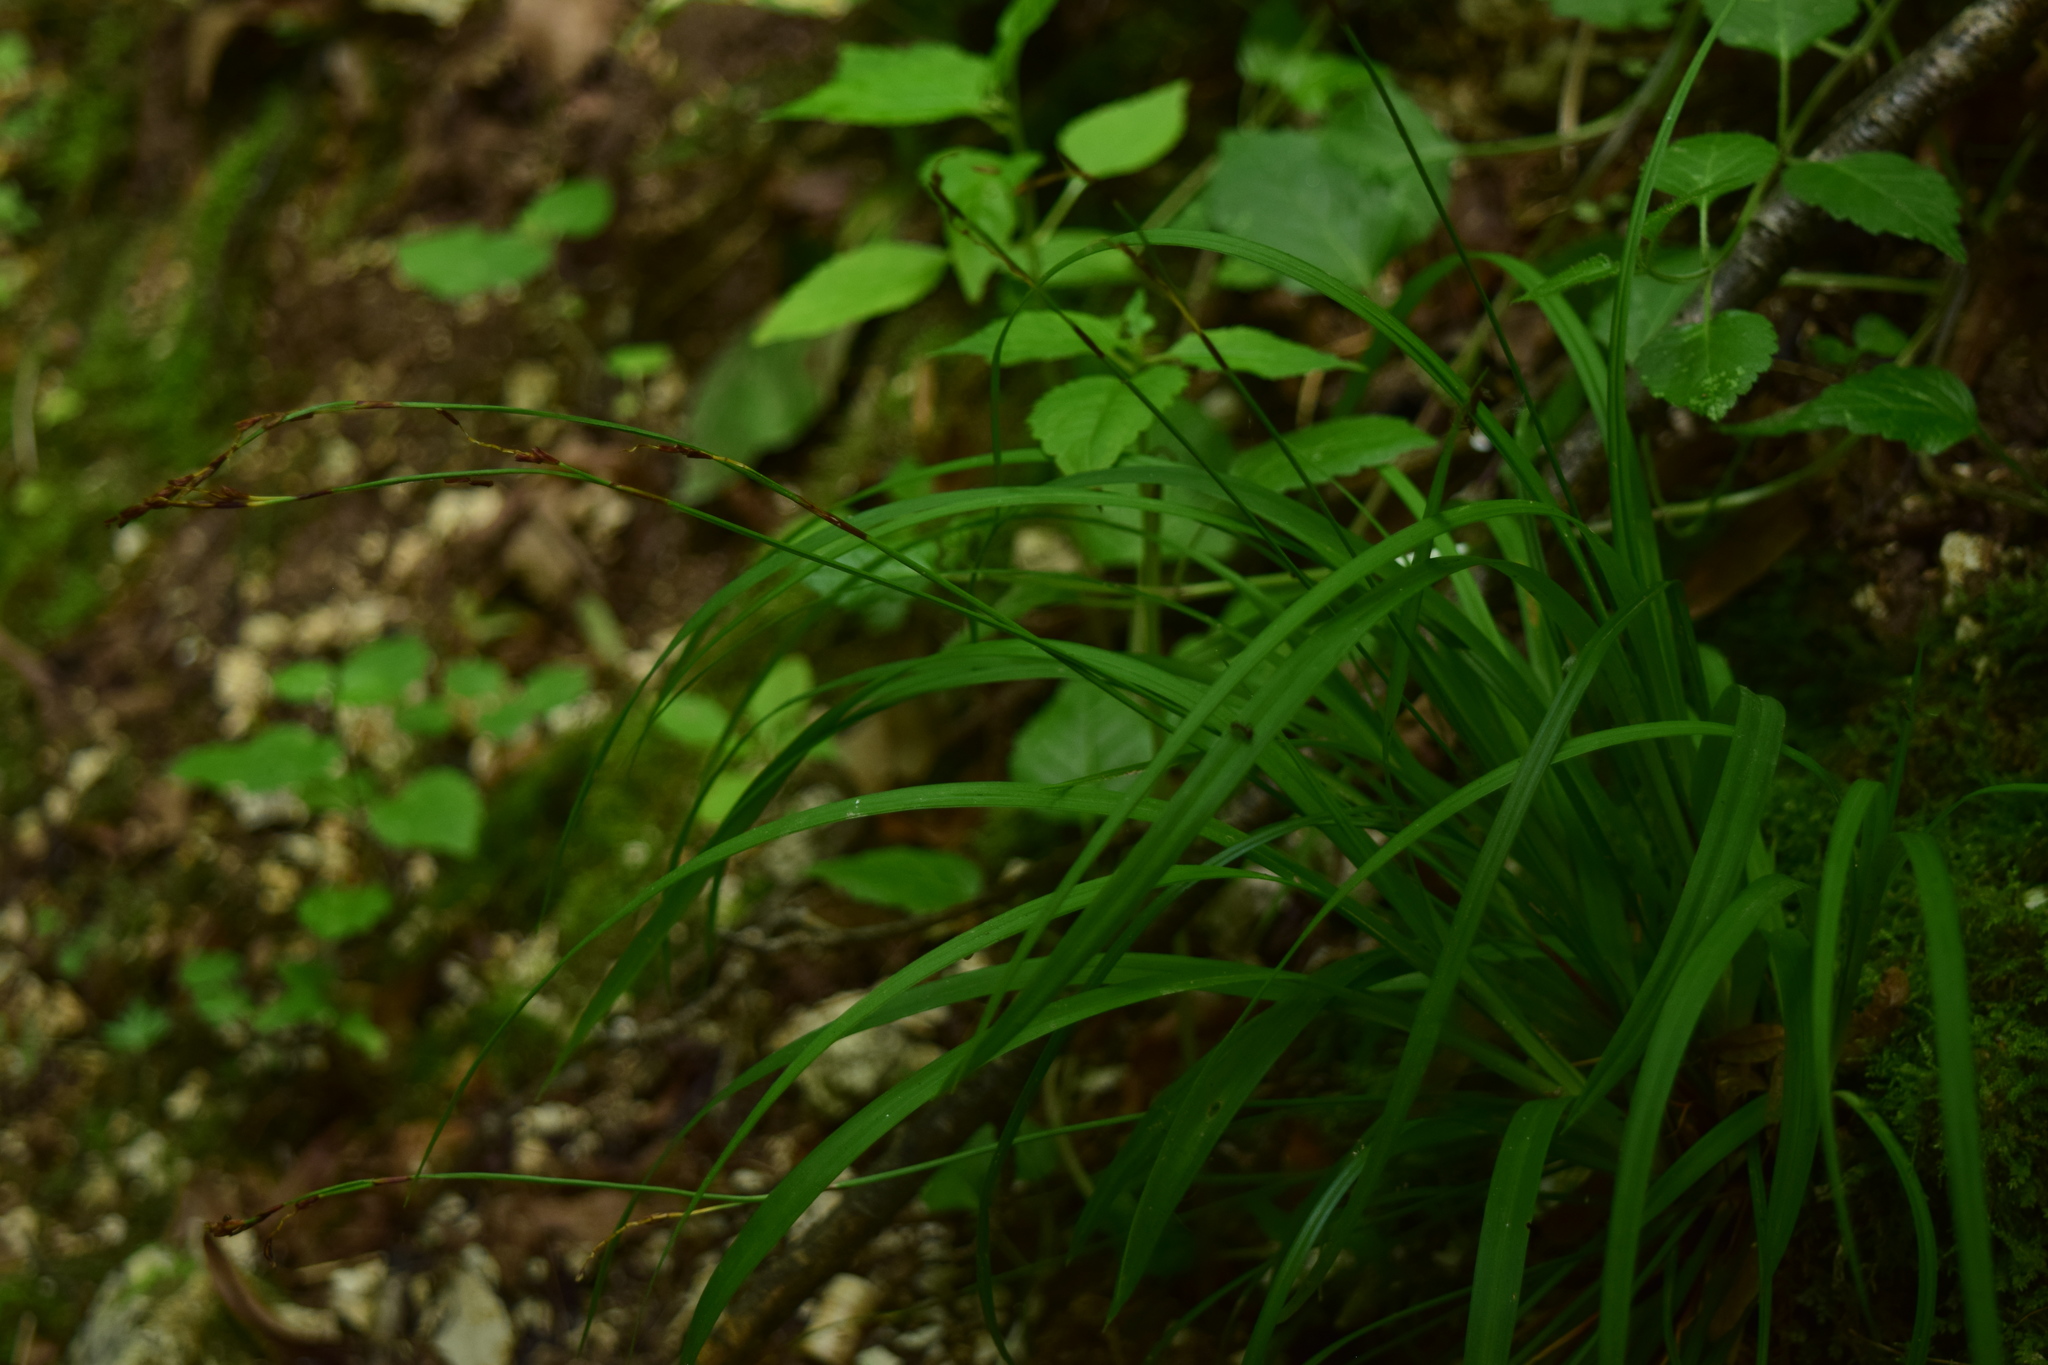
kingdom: Plantae
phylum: Tracheophyta
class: Liliopsida
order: Poales
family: Cyperaceae
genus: Carex
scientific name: Carex digitata
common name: Fingered sedge
